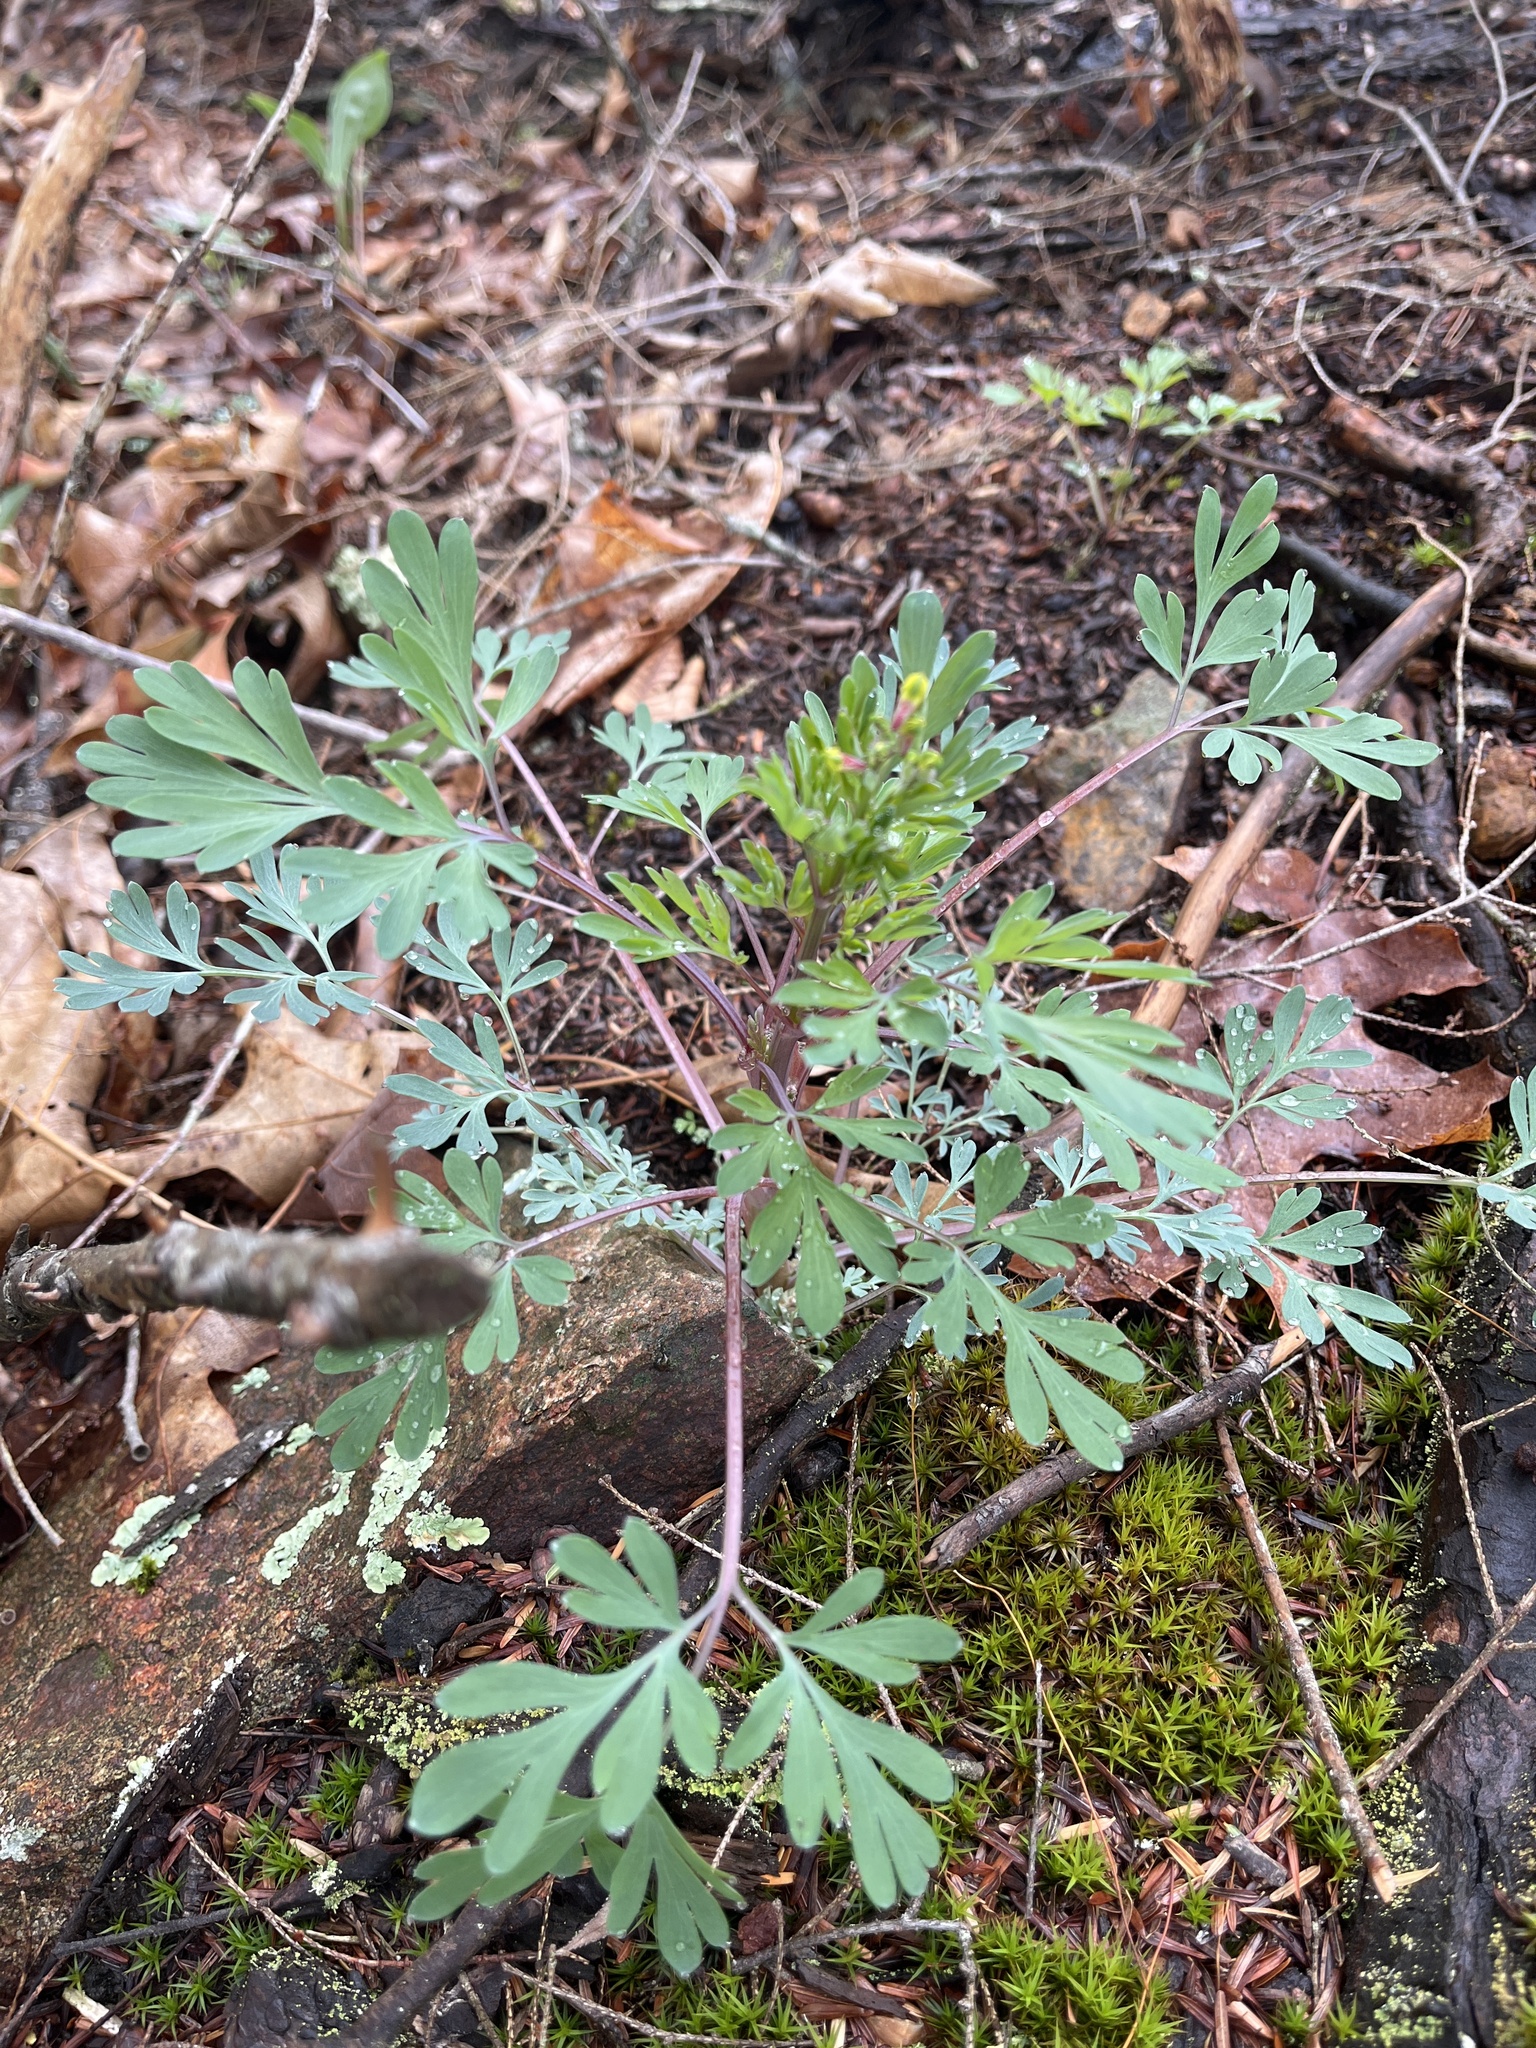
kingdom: Plantae
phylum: Tracheophyta
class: Magnoliopsida
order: Ranunculales
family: Papaveraceae
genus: Capnoides
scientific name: Capnoides sempervirens
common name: Rock harlequin
